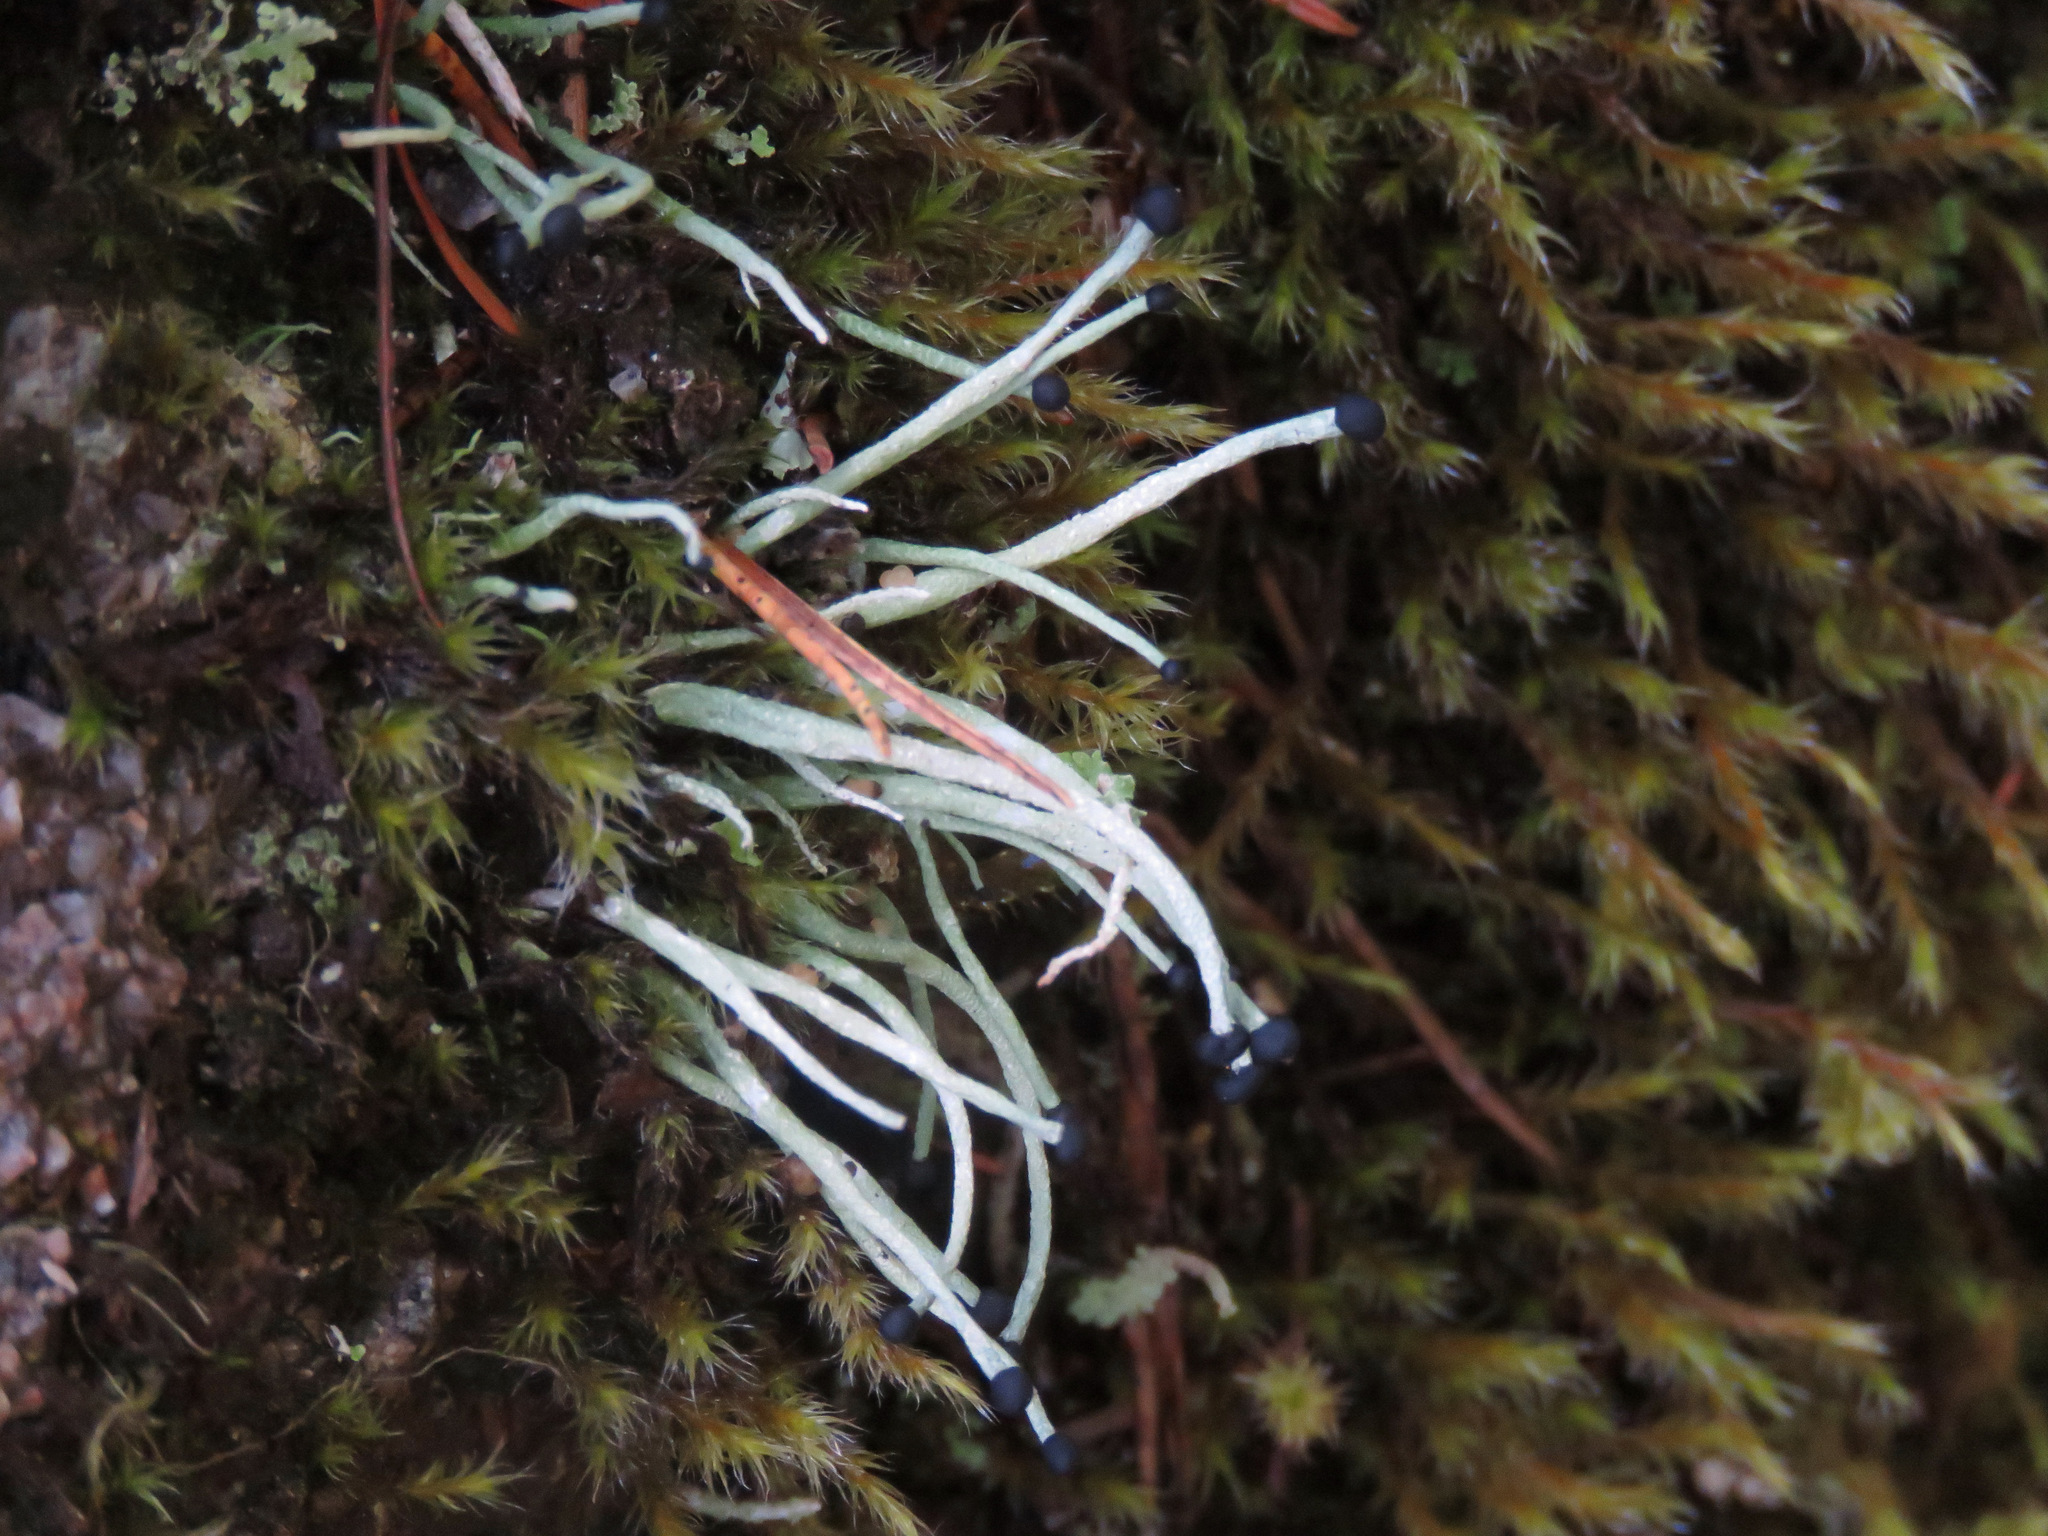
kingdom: Fungi
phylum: Ascomycota
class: Lecanoromycetes
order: Lecanorales
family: Cladoniaceae
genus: Pilophorus
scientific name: Pilophorus acicularis
